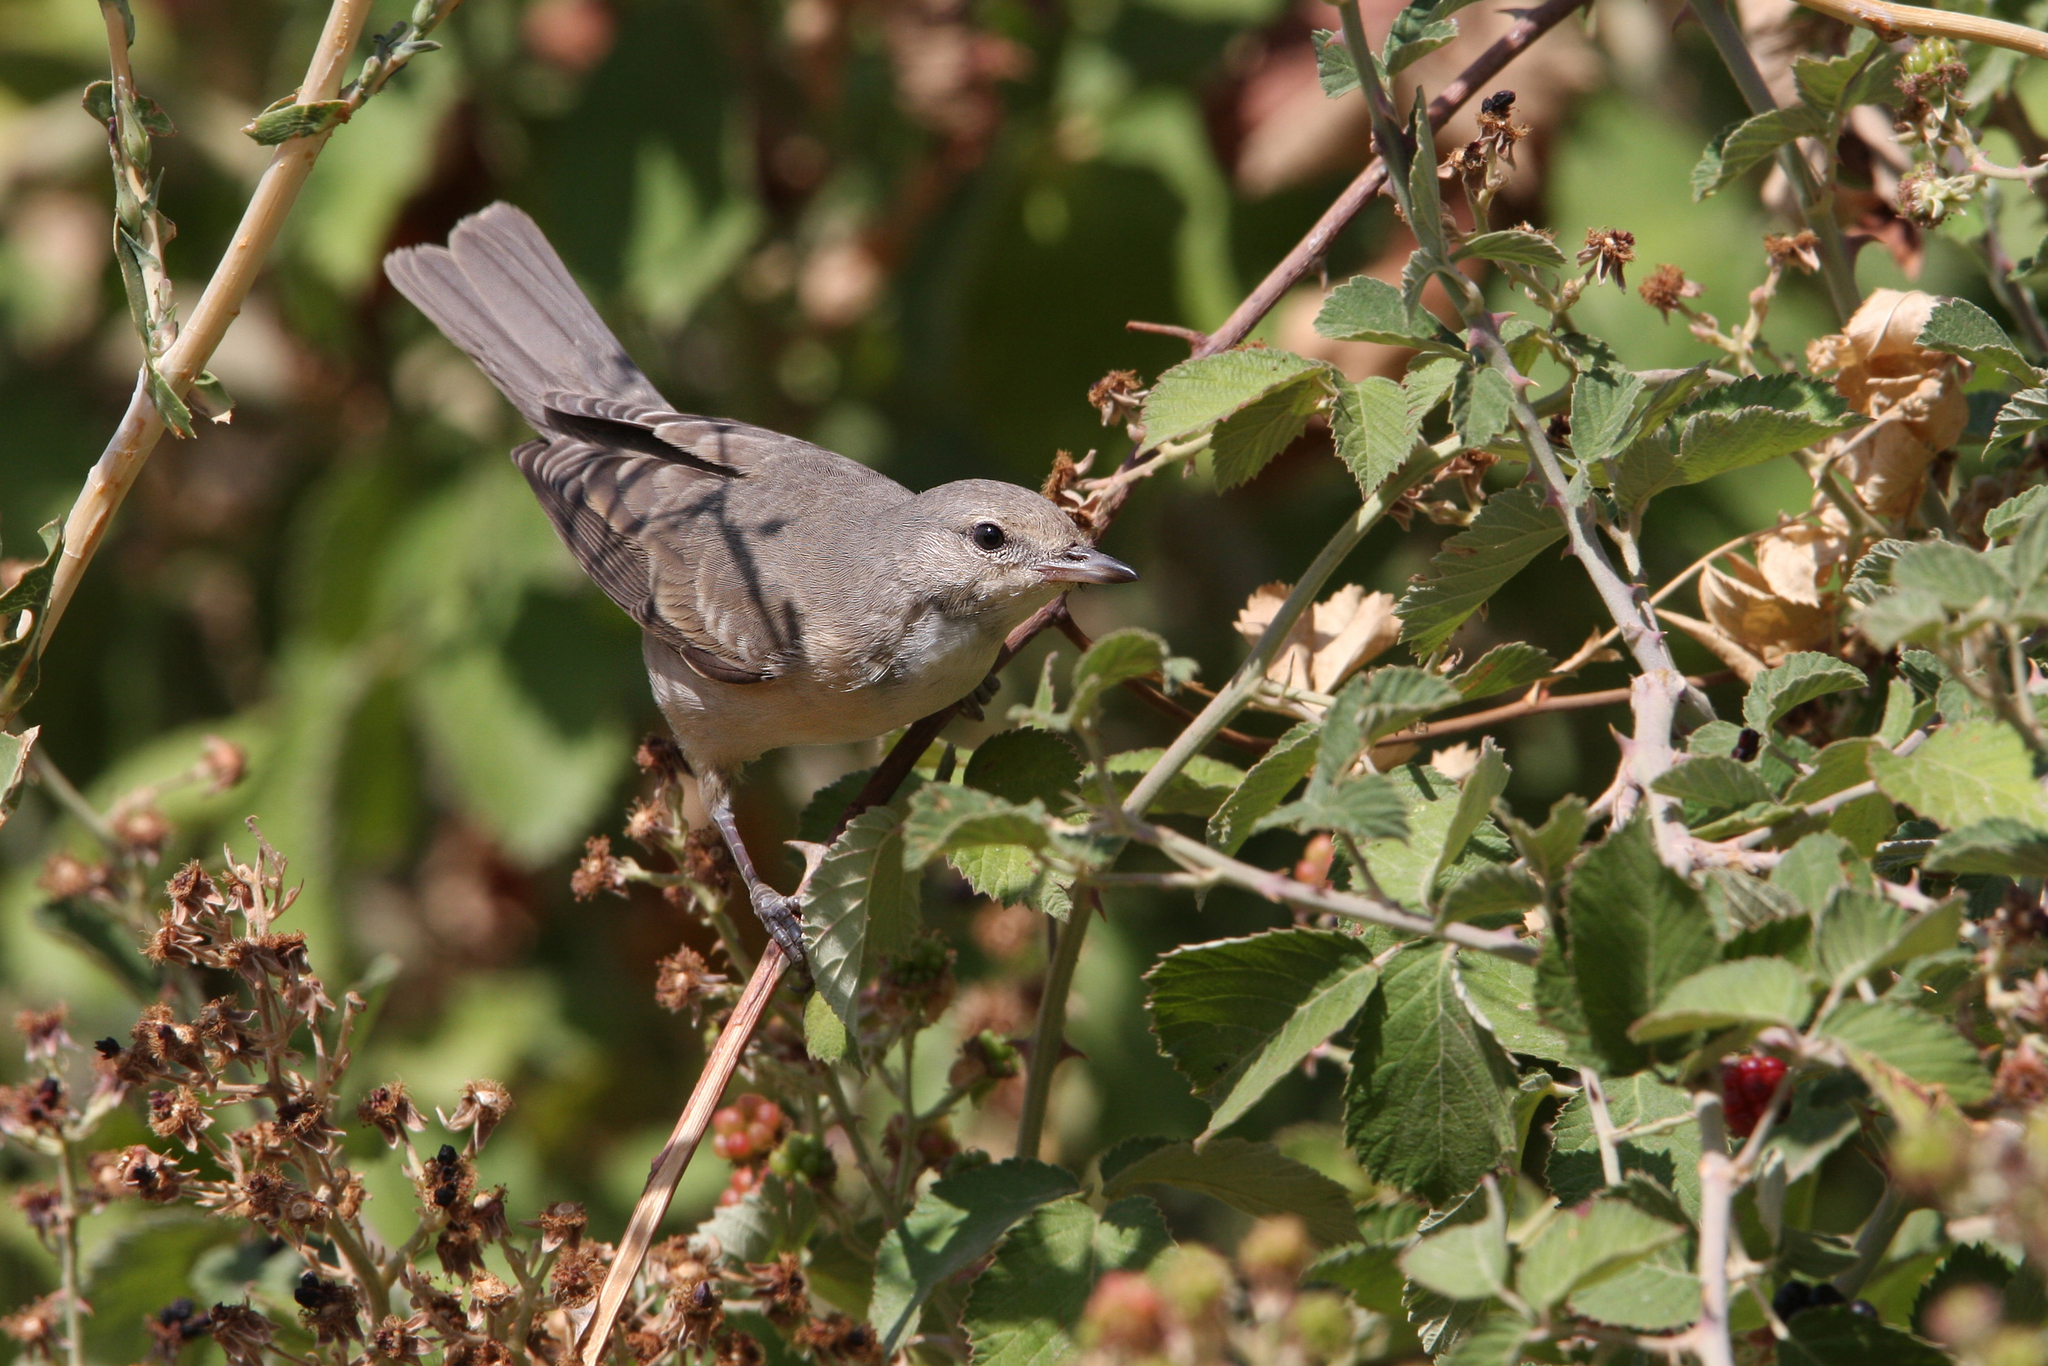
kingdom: Animalia
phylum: Chordata
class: Aves
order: Passeriformes
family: Sylviidae
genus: Sylvia
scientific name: Sylvia nisoria
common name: Barred warbler
